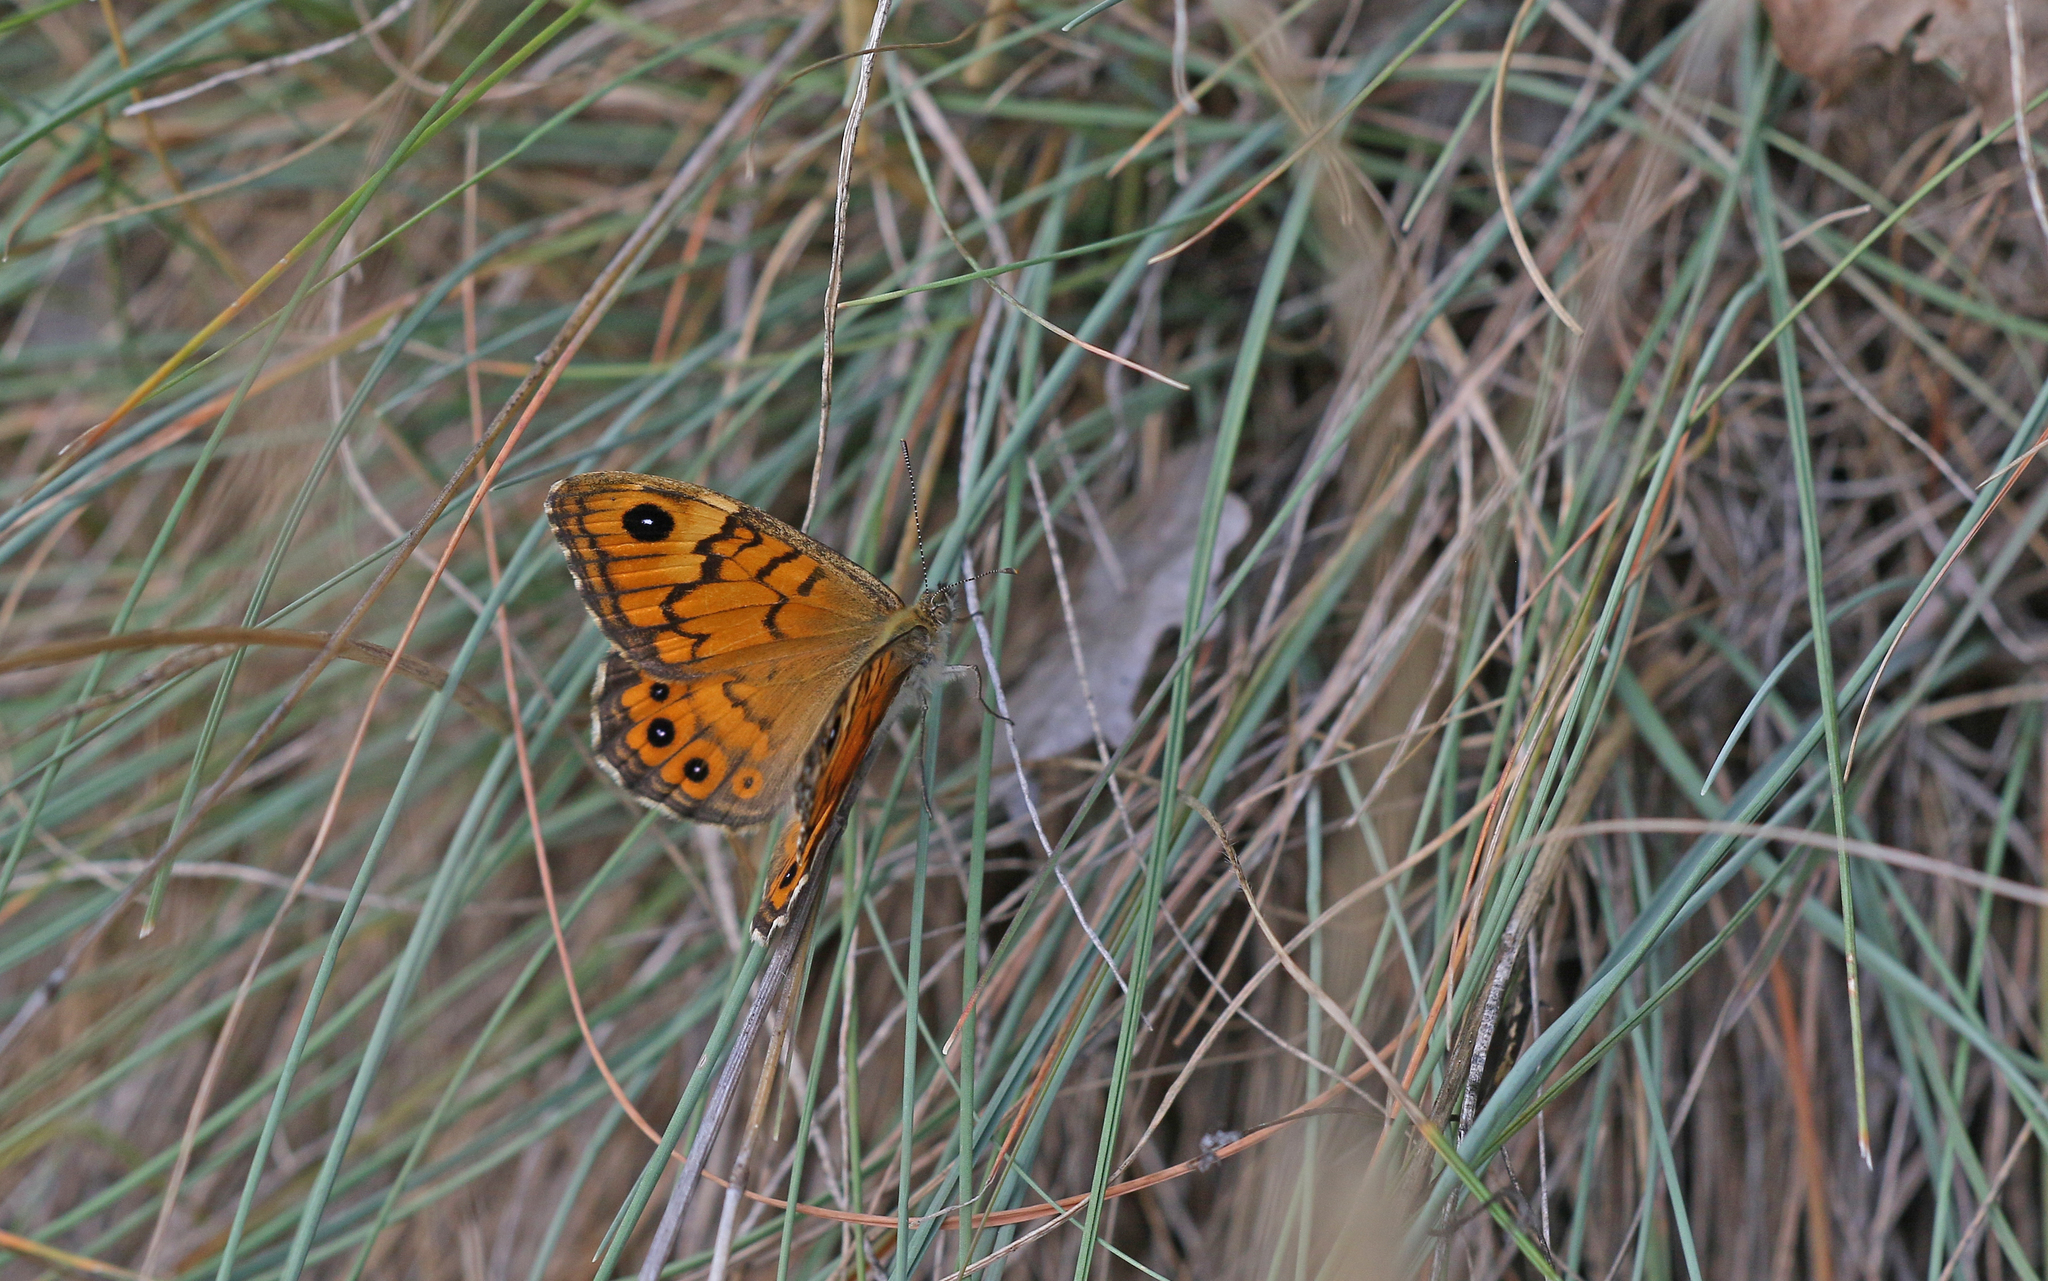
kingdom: Animalia
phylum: Arthropoda
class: Insecta
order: Lepidoptera
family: Nymphalidae
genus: Pararge
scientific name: Pararge Lasiommata megera
